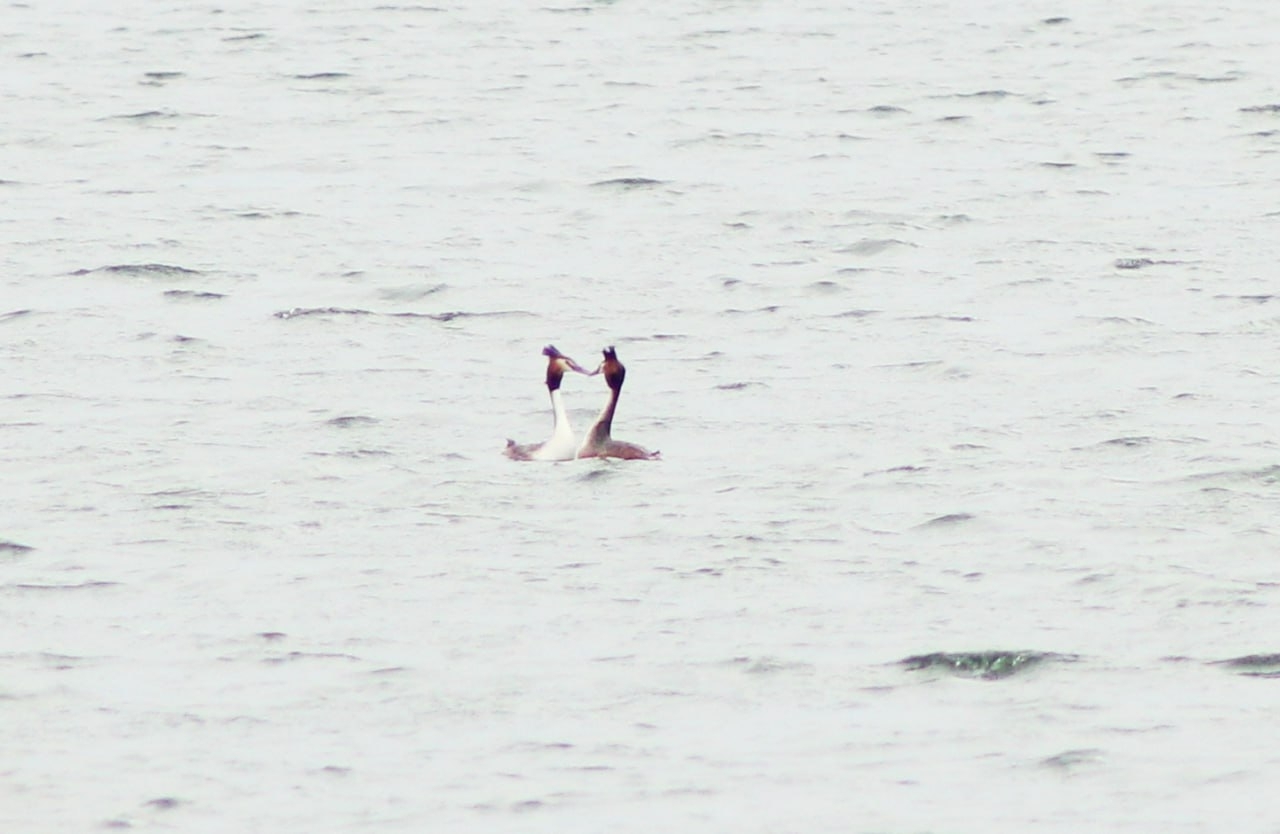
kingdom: Animalia
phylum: Chordata
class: Aves
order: Podicipediformes
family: Podicipedidae
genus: Podiceps
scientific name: Podiceps cristatus
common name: Great crested grebe
